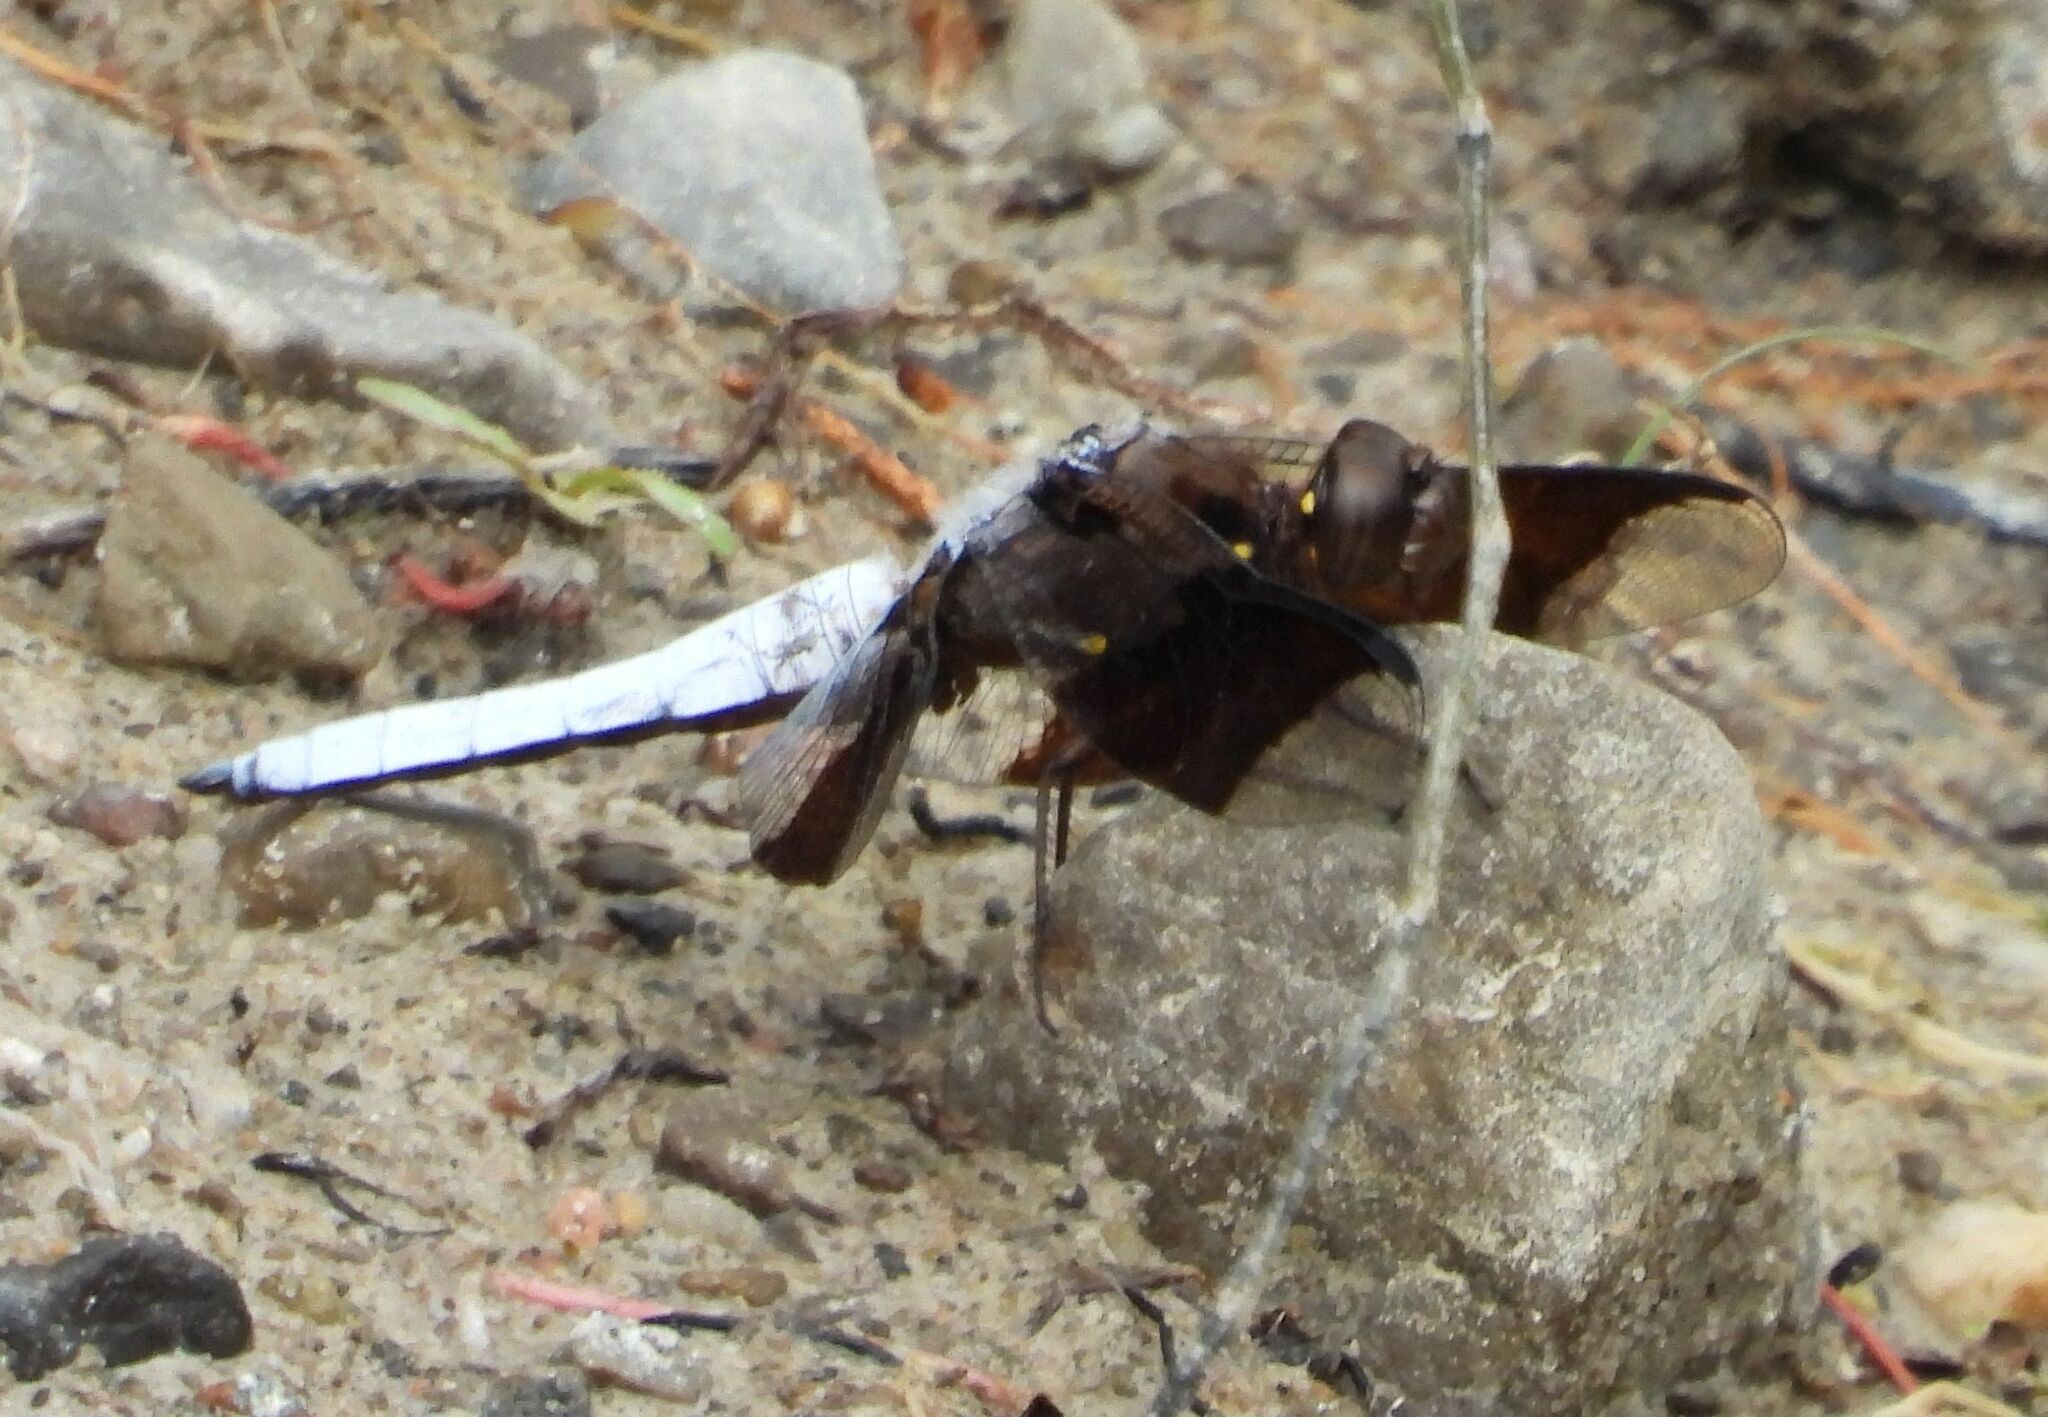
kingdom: Animalia
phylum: Arthropoda
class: Insecta
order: Odonata
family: Libellulidae
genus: Plathemis
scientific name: Plathemis lydia
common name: Common whitetail
